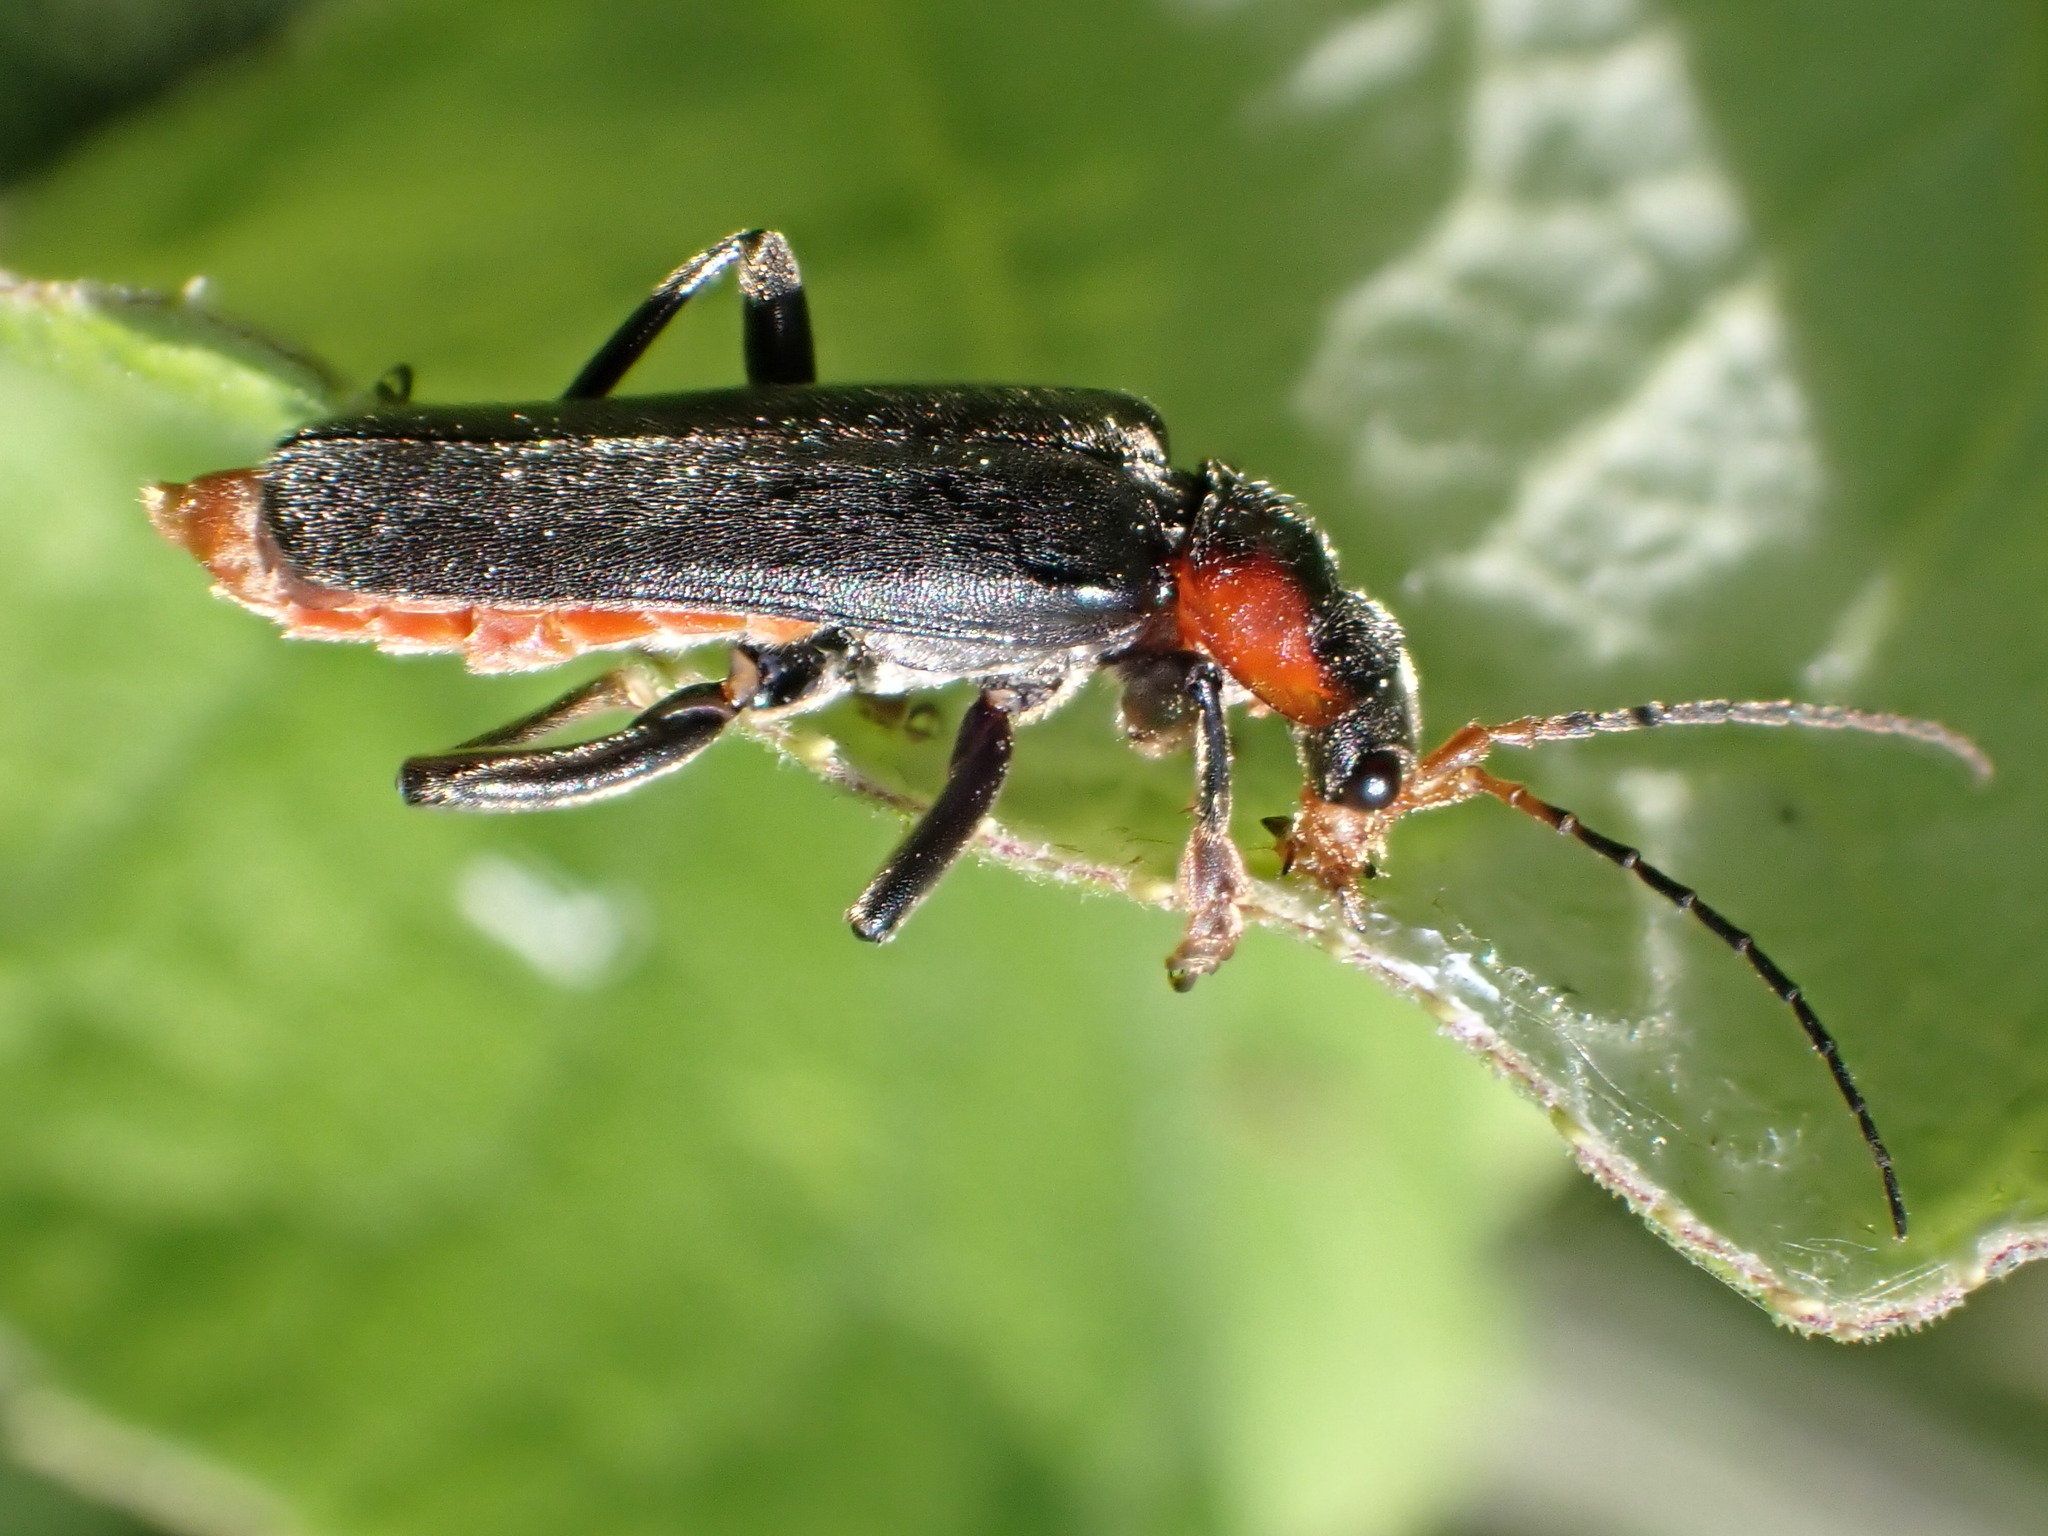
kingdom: Animalia
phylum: Arthropoda
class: Insecta
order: Coleoptera
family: Cantharidae
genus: Cantharis
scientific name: Cantharis fusca
